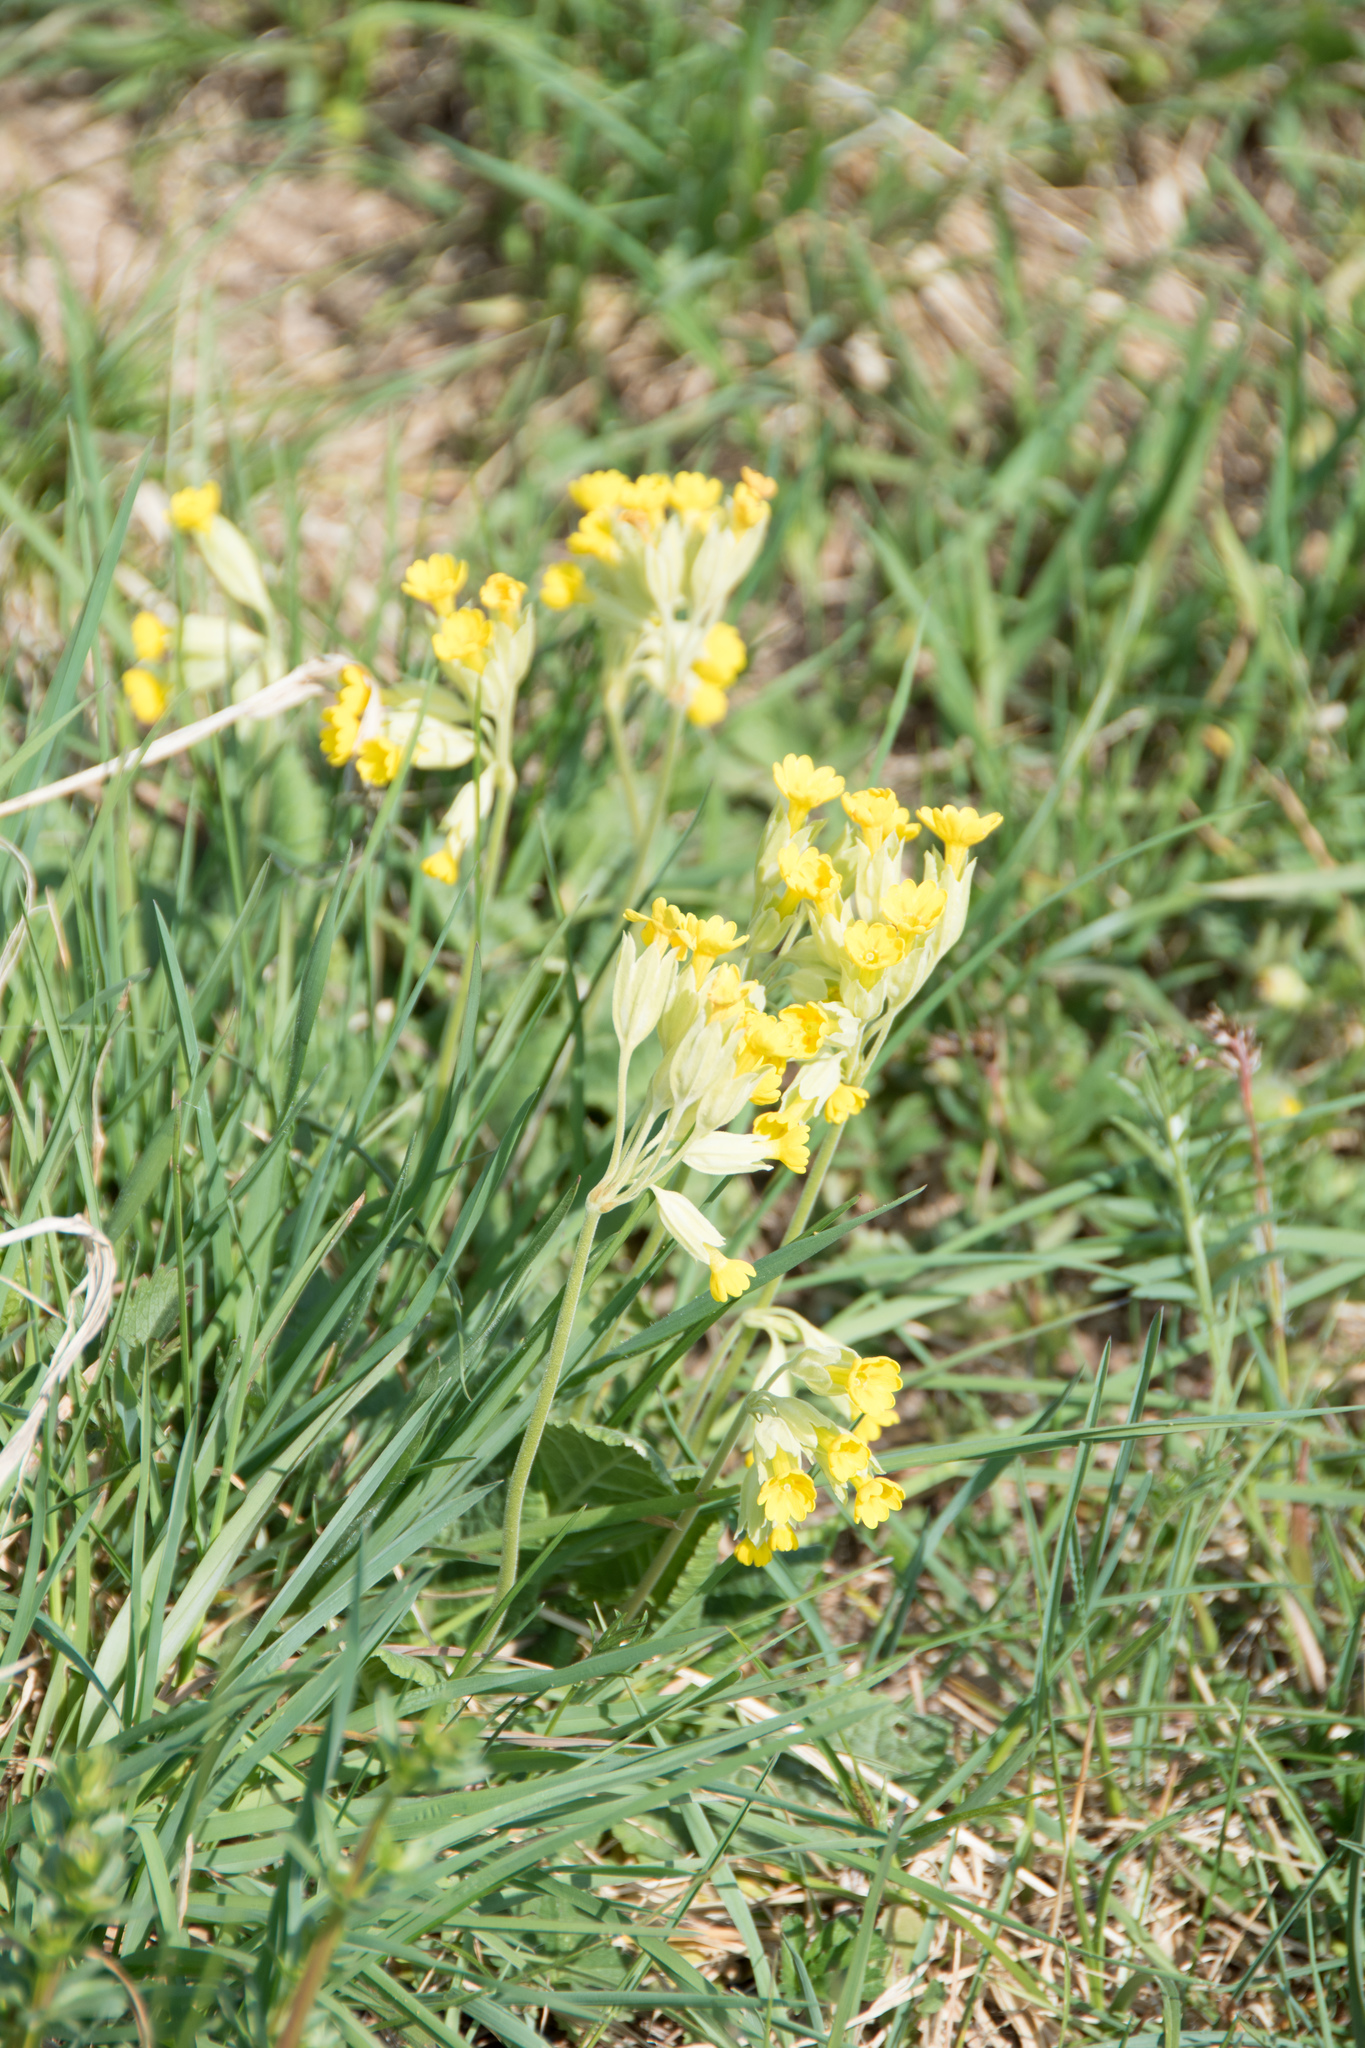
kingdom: Plantae
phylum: Tracheophyta
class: Magnoliopsida
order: Ericales
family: Primulaceae
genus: Primula
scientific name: Primula veris
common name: Cowslip
